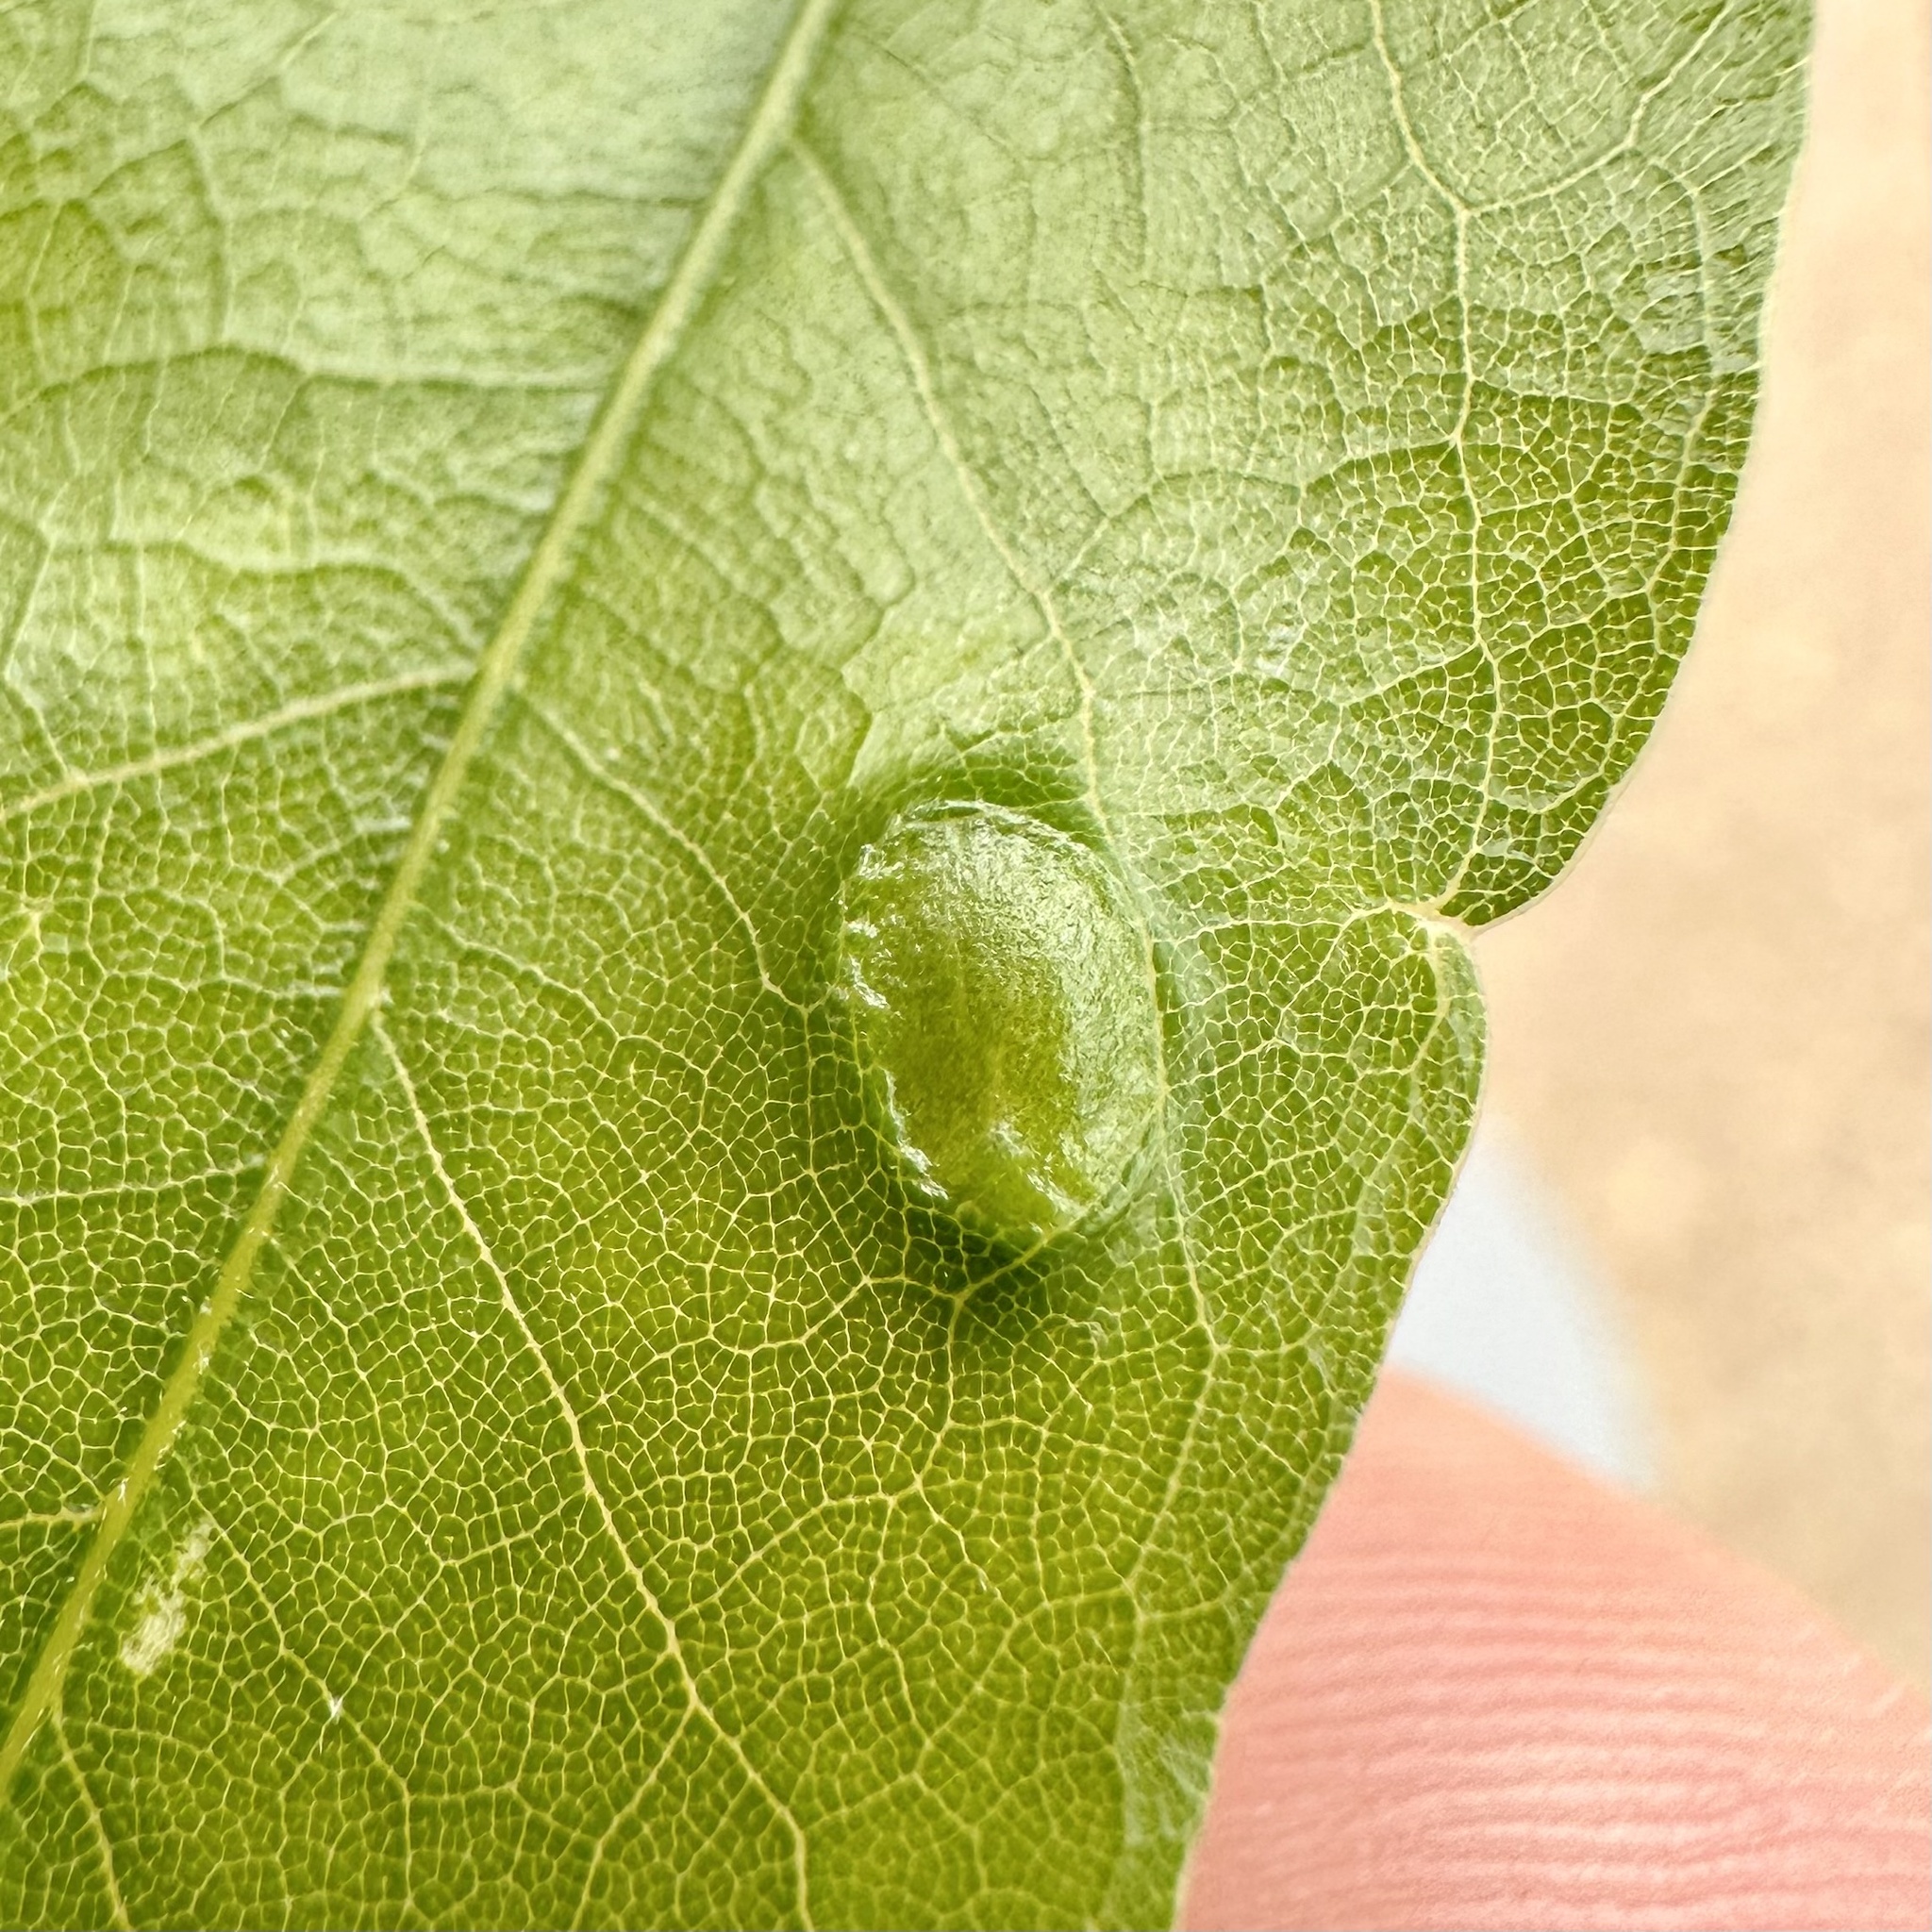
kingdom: Animalia
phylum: Arthropoda
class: Insecta
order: Hymenoptera
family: Cynipidae
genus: Dryocosmus
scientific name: Dryocosmus
